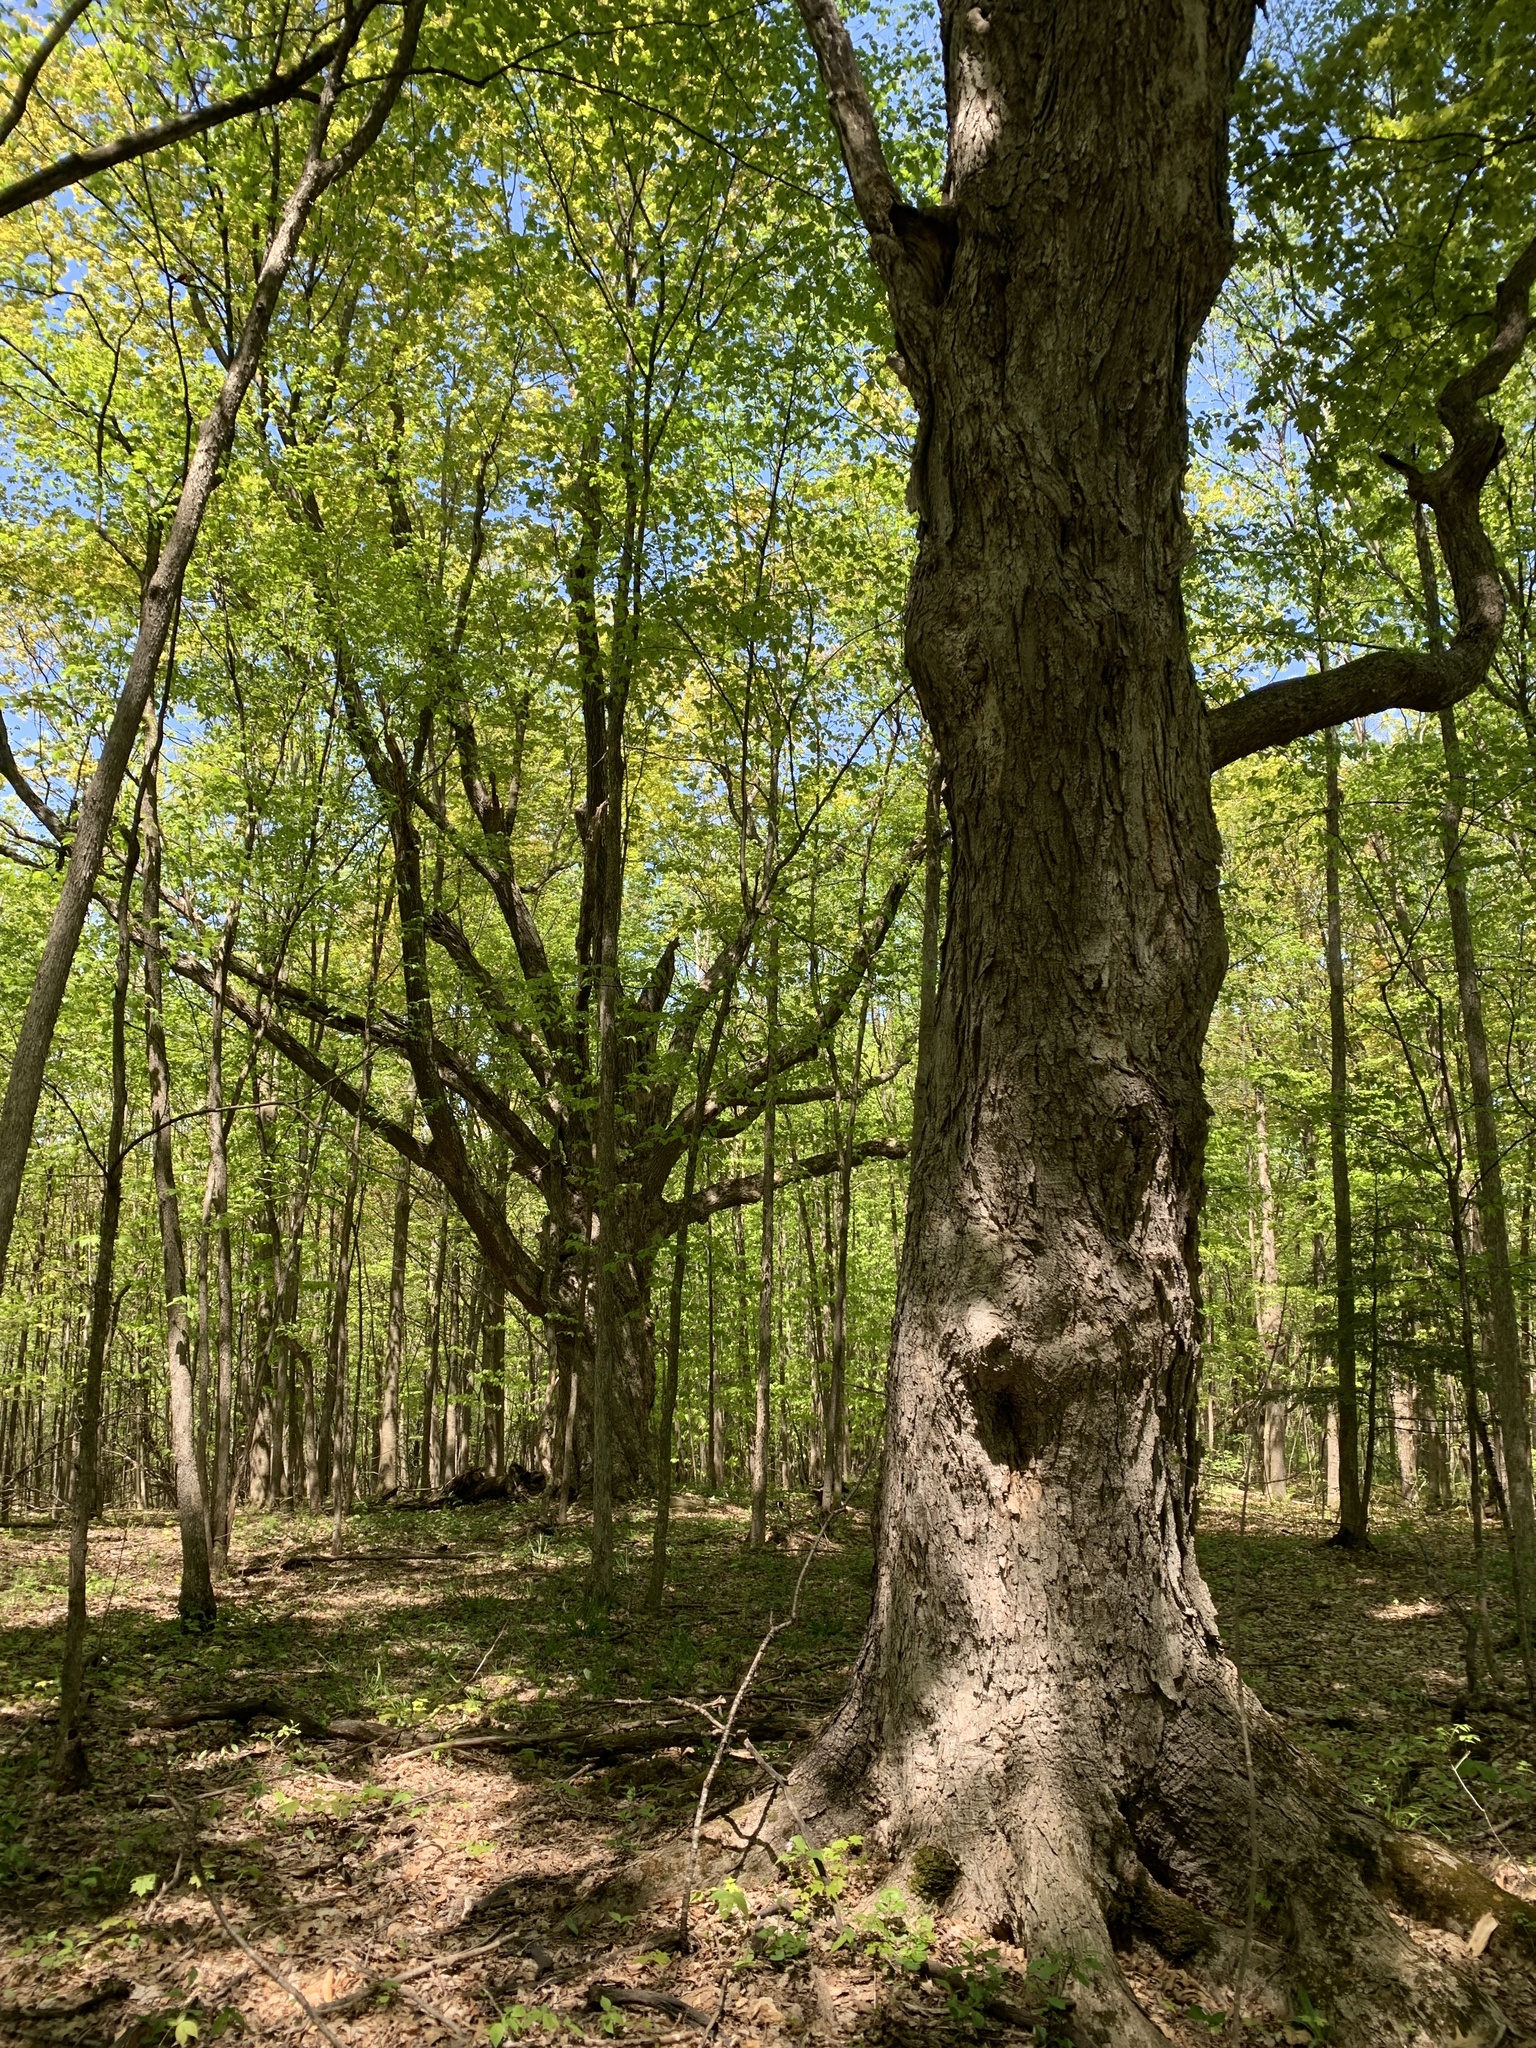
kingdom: Plantae
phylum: Tracheophyta
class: Magnoliopsida
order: Sapindales
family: Sapindaceae
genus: Acer
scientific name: Acer saccharum
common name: Sugar maple
